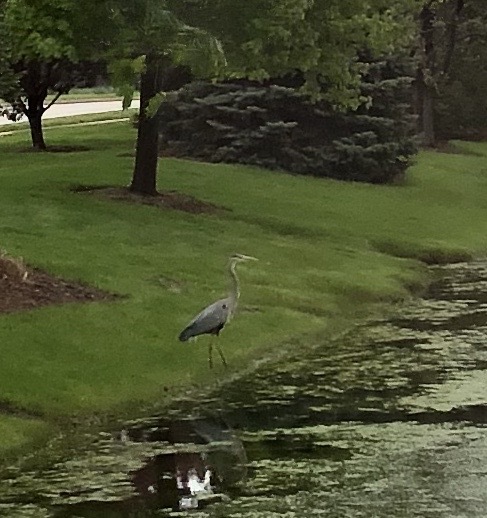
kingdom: Animalia
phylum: Chordata
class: Aves
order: Pelecaniformes
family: Ardeidae
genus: Ardea
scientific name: Ardea herodias
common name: Great blue heron
